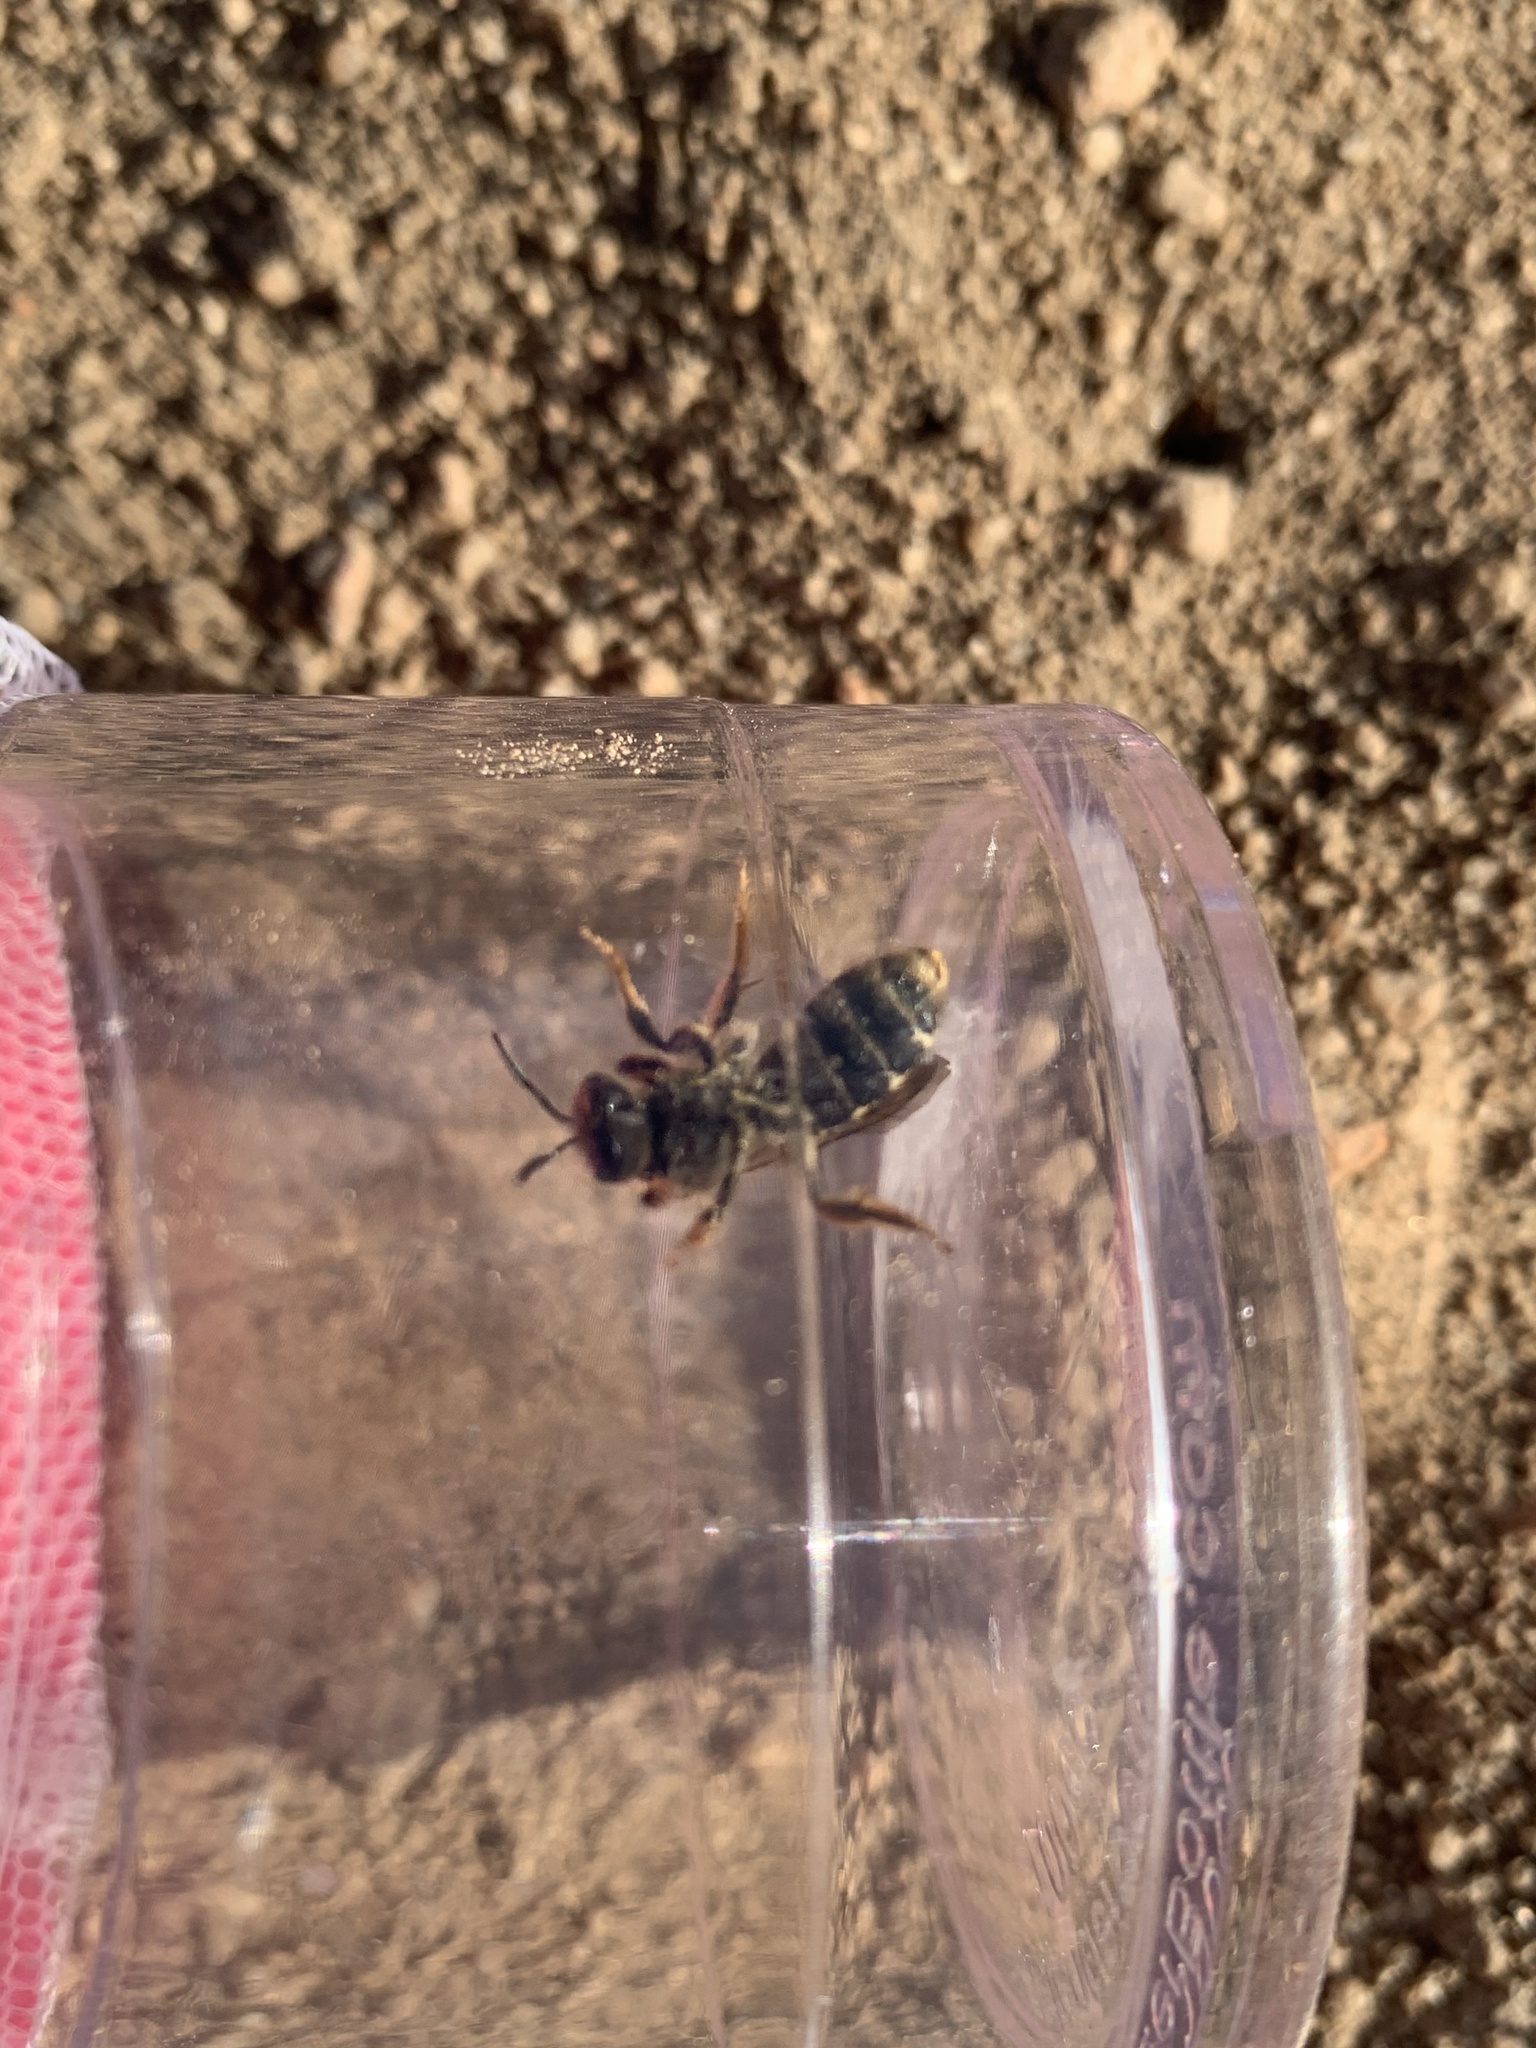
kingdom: Animalia
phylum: Arthropoda
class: Insecta
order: Hymenoptera
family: Halictidae
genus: Halictus
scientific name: Halictus farinosus
